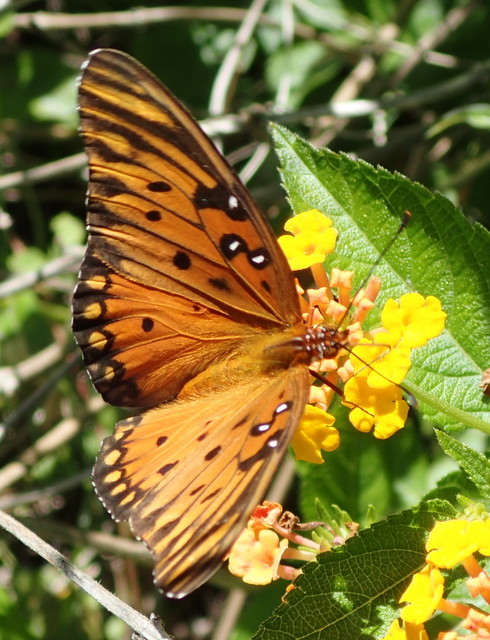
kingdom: Animalia
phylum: Arthropoda
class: Insecta
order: Lepidoptera
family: Nymphalidae
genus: Dione
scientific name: Dione vanillae
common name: Gulf fritillary
